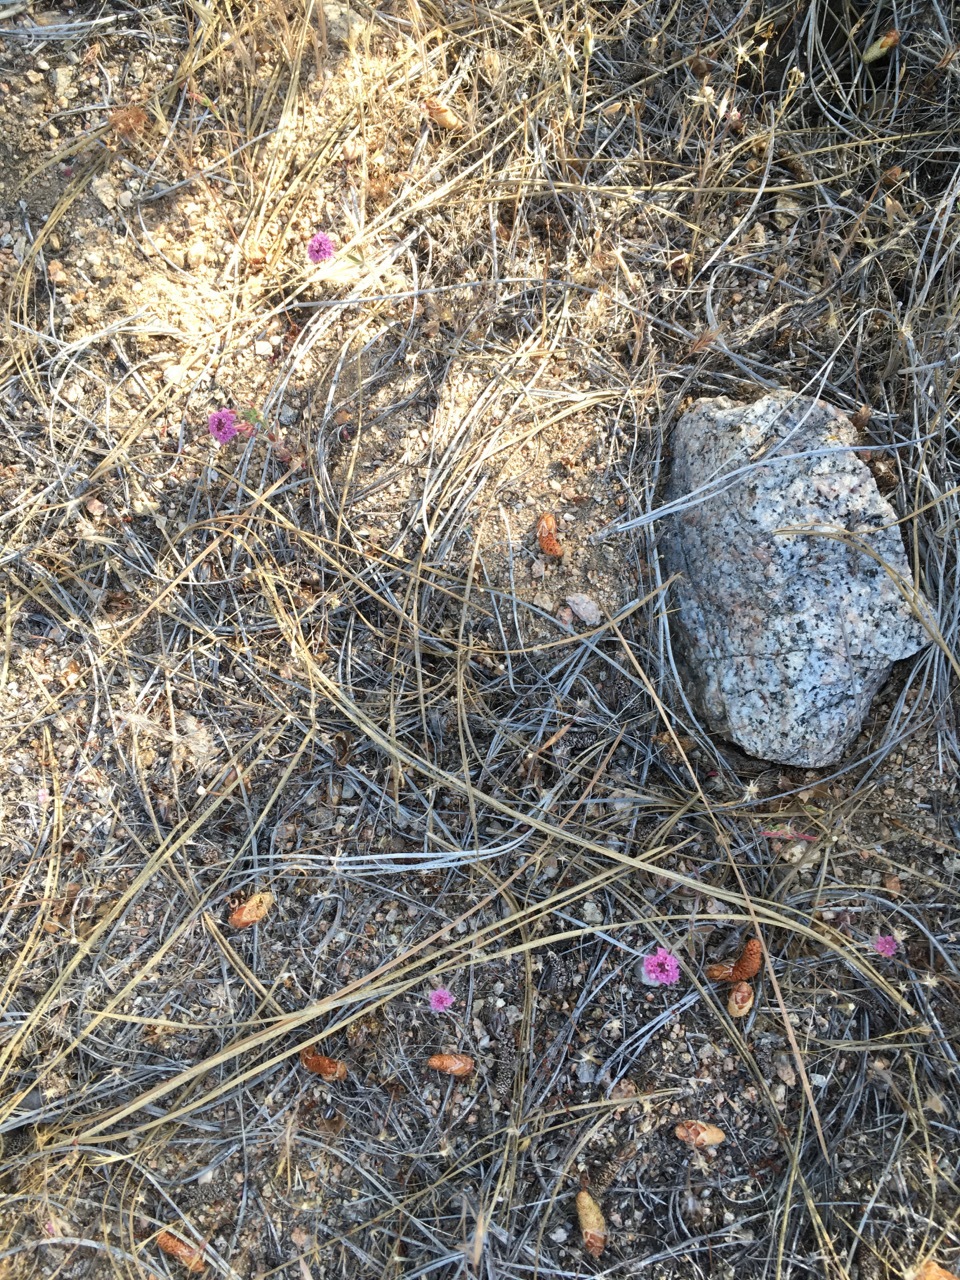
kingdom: Plantae
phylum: Tracheophyta
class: Magnoliopsida
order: Caryophyllales
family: Polygonaceae
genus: Chorizanthe
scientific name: Chorizanthe douglasii
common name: Douglas's spineflower
